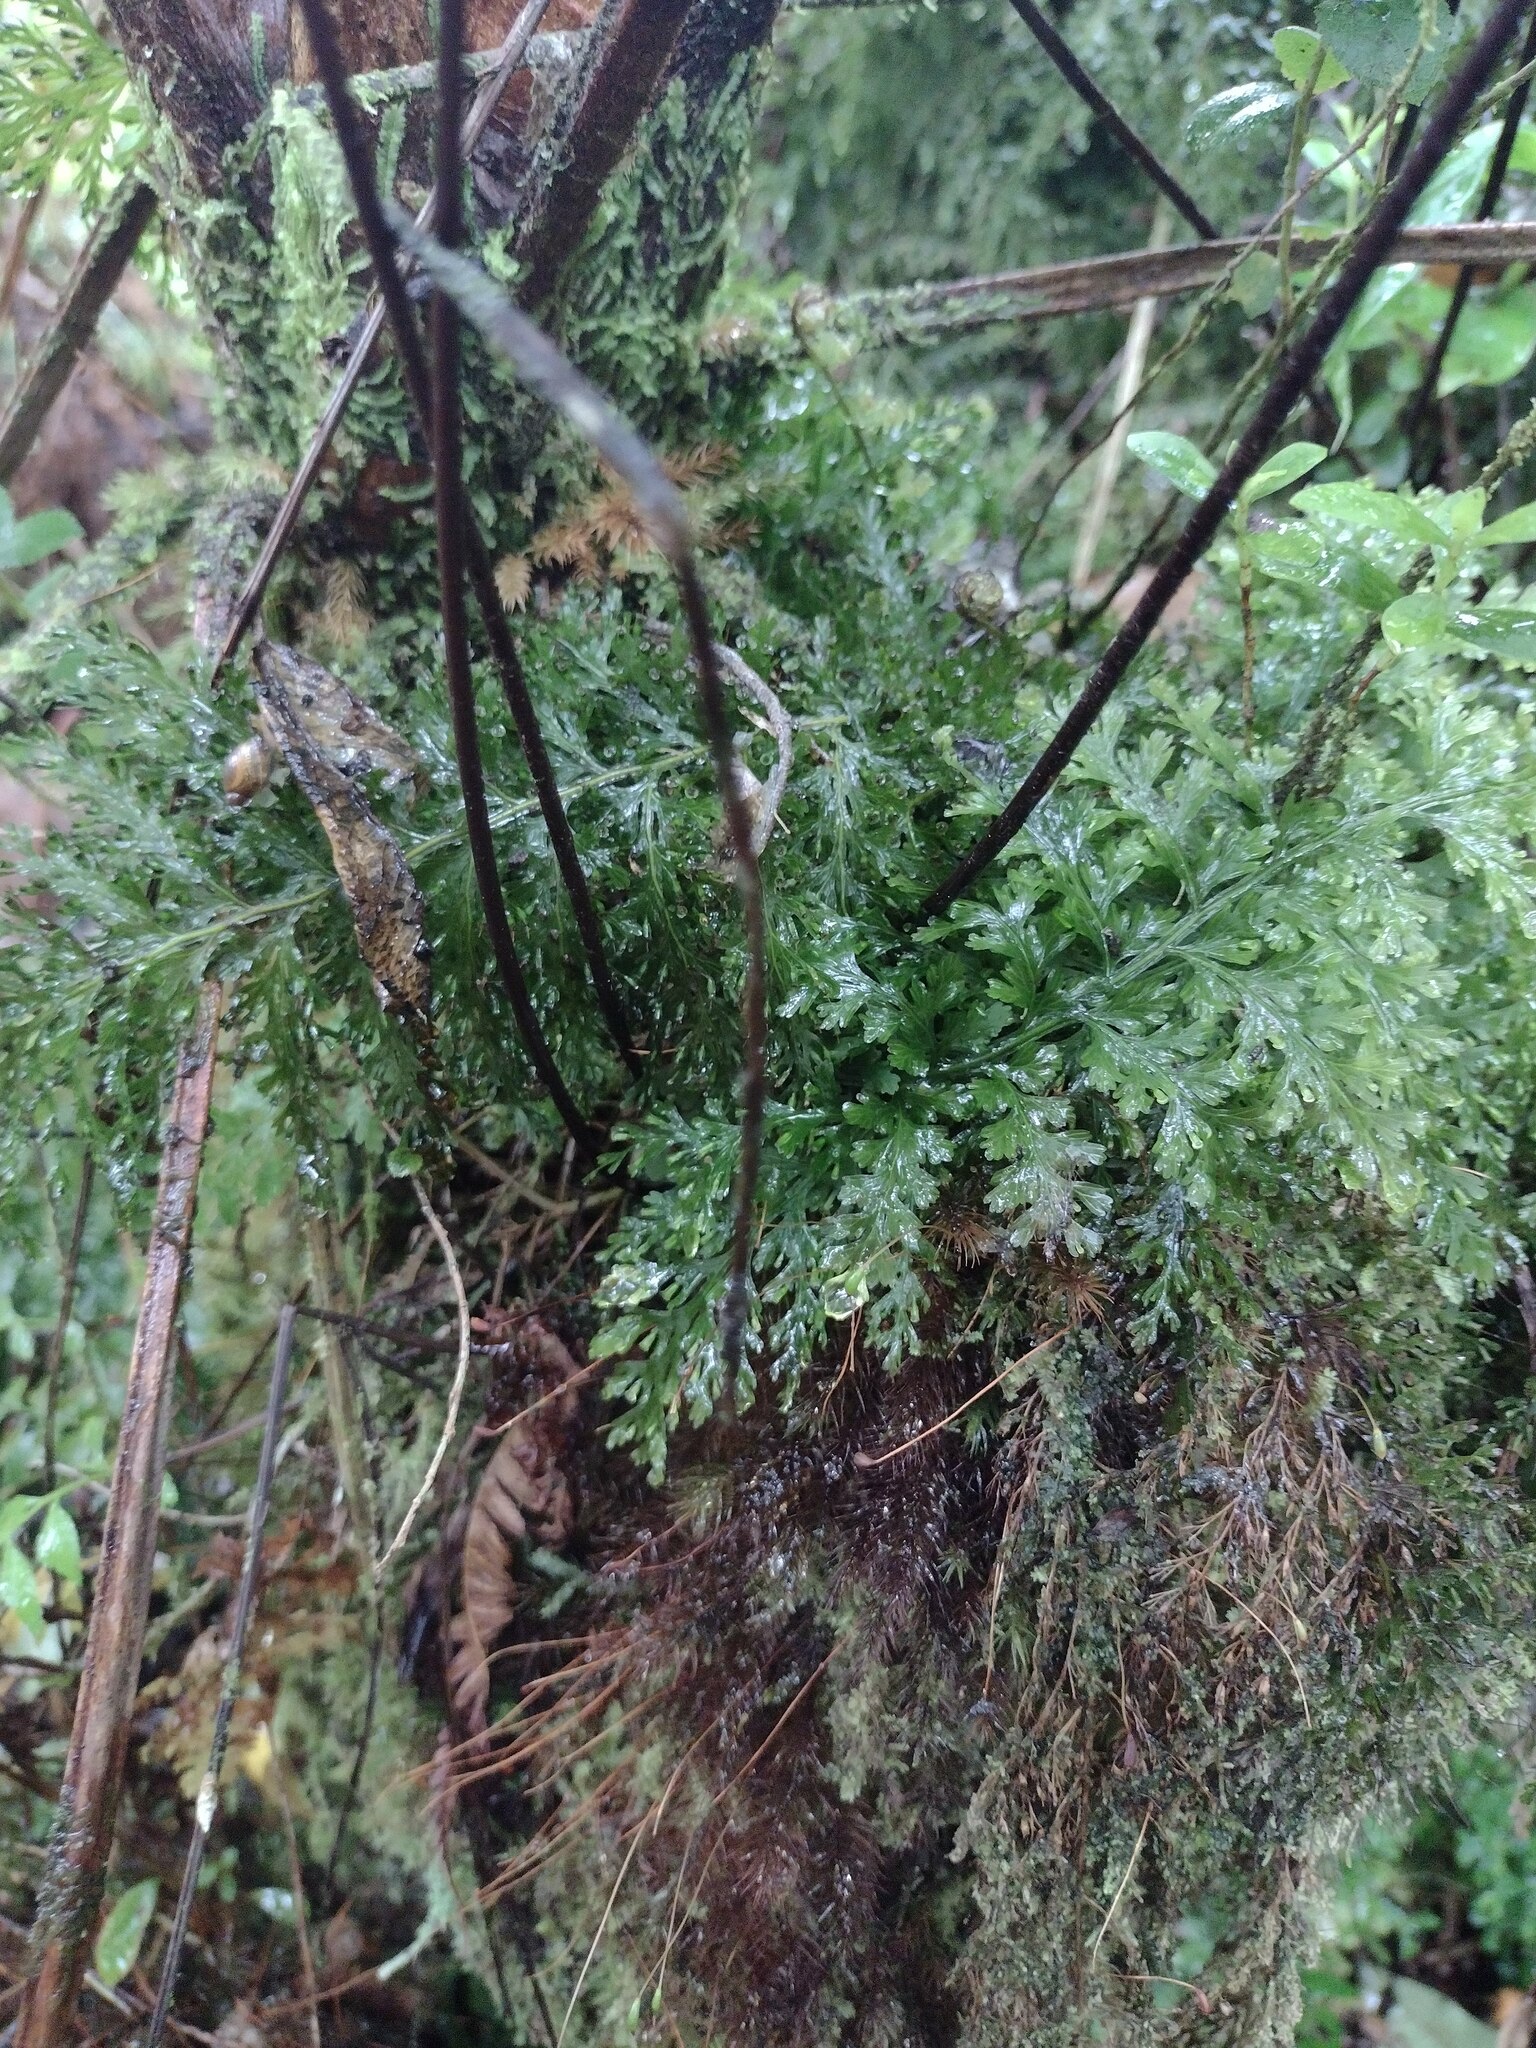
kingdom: Plantae
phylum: Tracheophyta
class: Polypodiopsida
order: Hymenophyllales
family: Hymenophyllaceae
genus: Vandenboschia
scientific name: Vandenboschia davallioides
